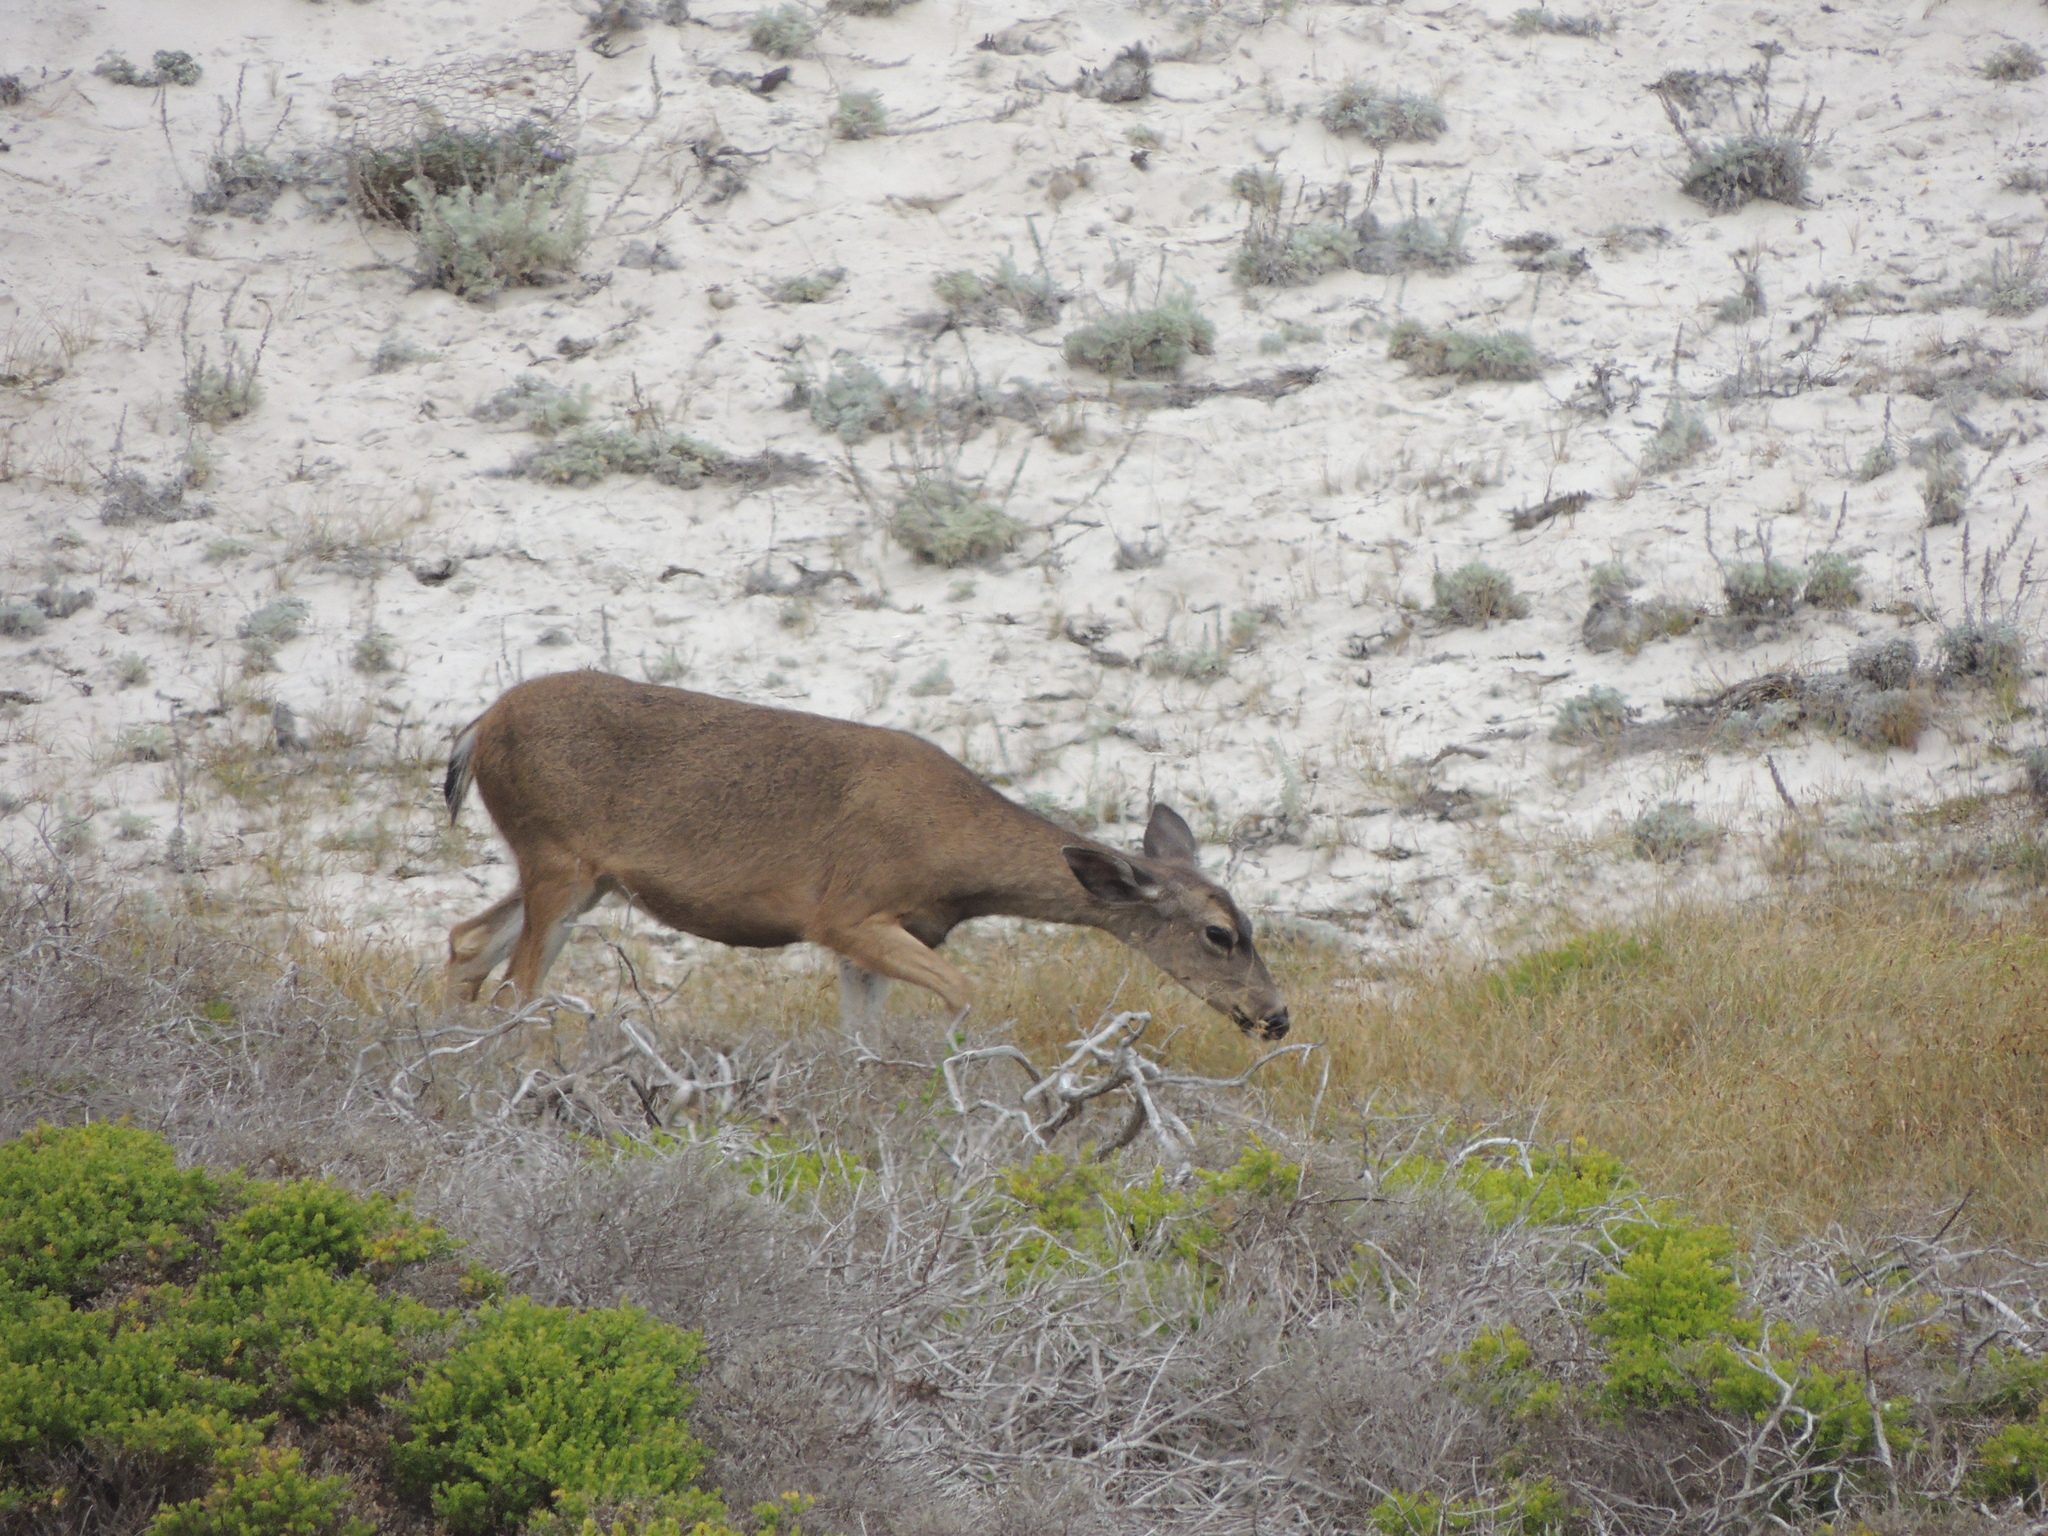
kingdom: Animalia
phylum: Chordata
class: Mammalia
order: Artiodactyla
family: Cervidae
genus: Odocoileus
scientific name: Odocoileus hemionus
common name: Mule deer
